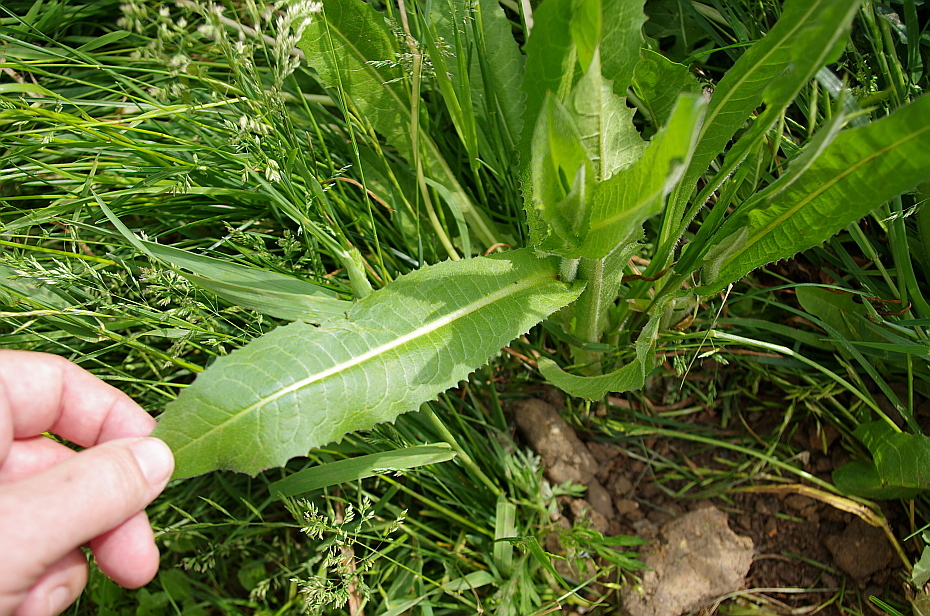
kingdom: Plantae
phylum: Tracheophyta
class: Magnoliopsida
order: Asterales
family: Asteraceae
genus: Cichorium
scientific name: Cichorium intybus
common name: Chicory
